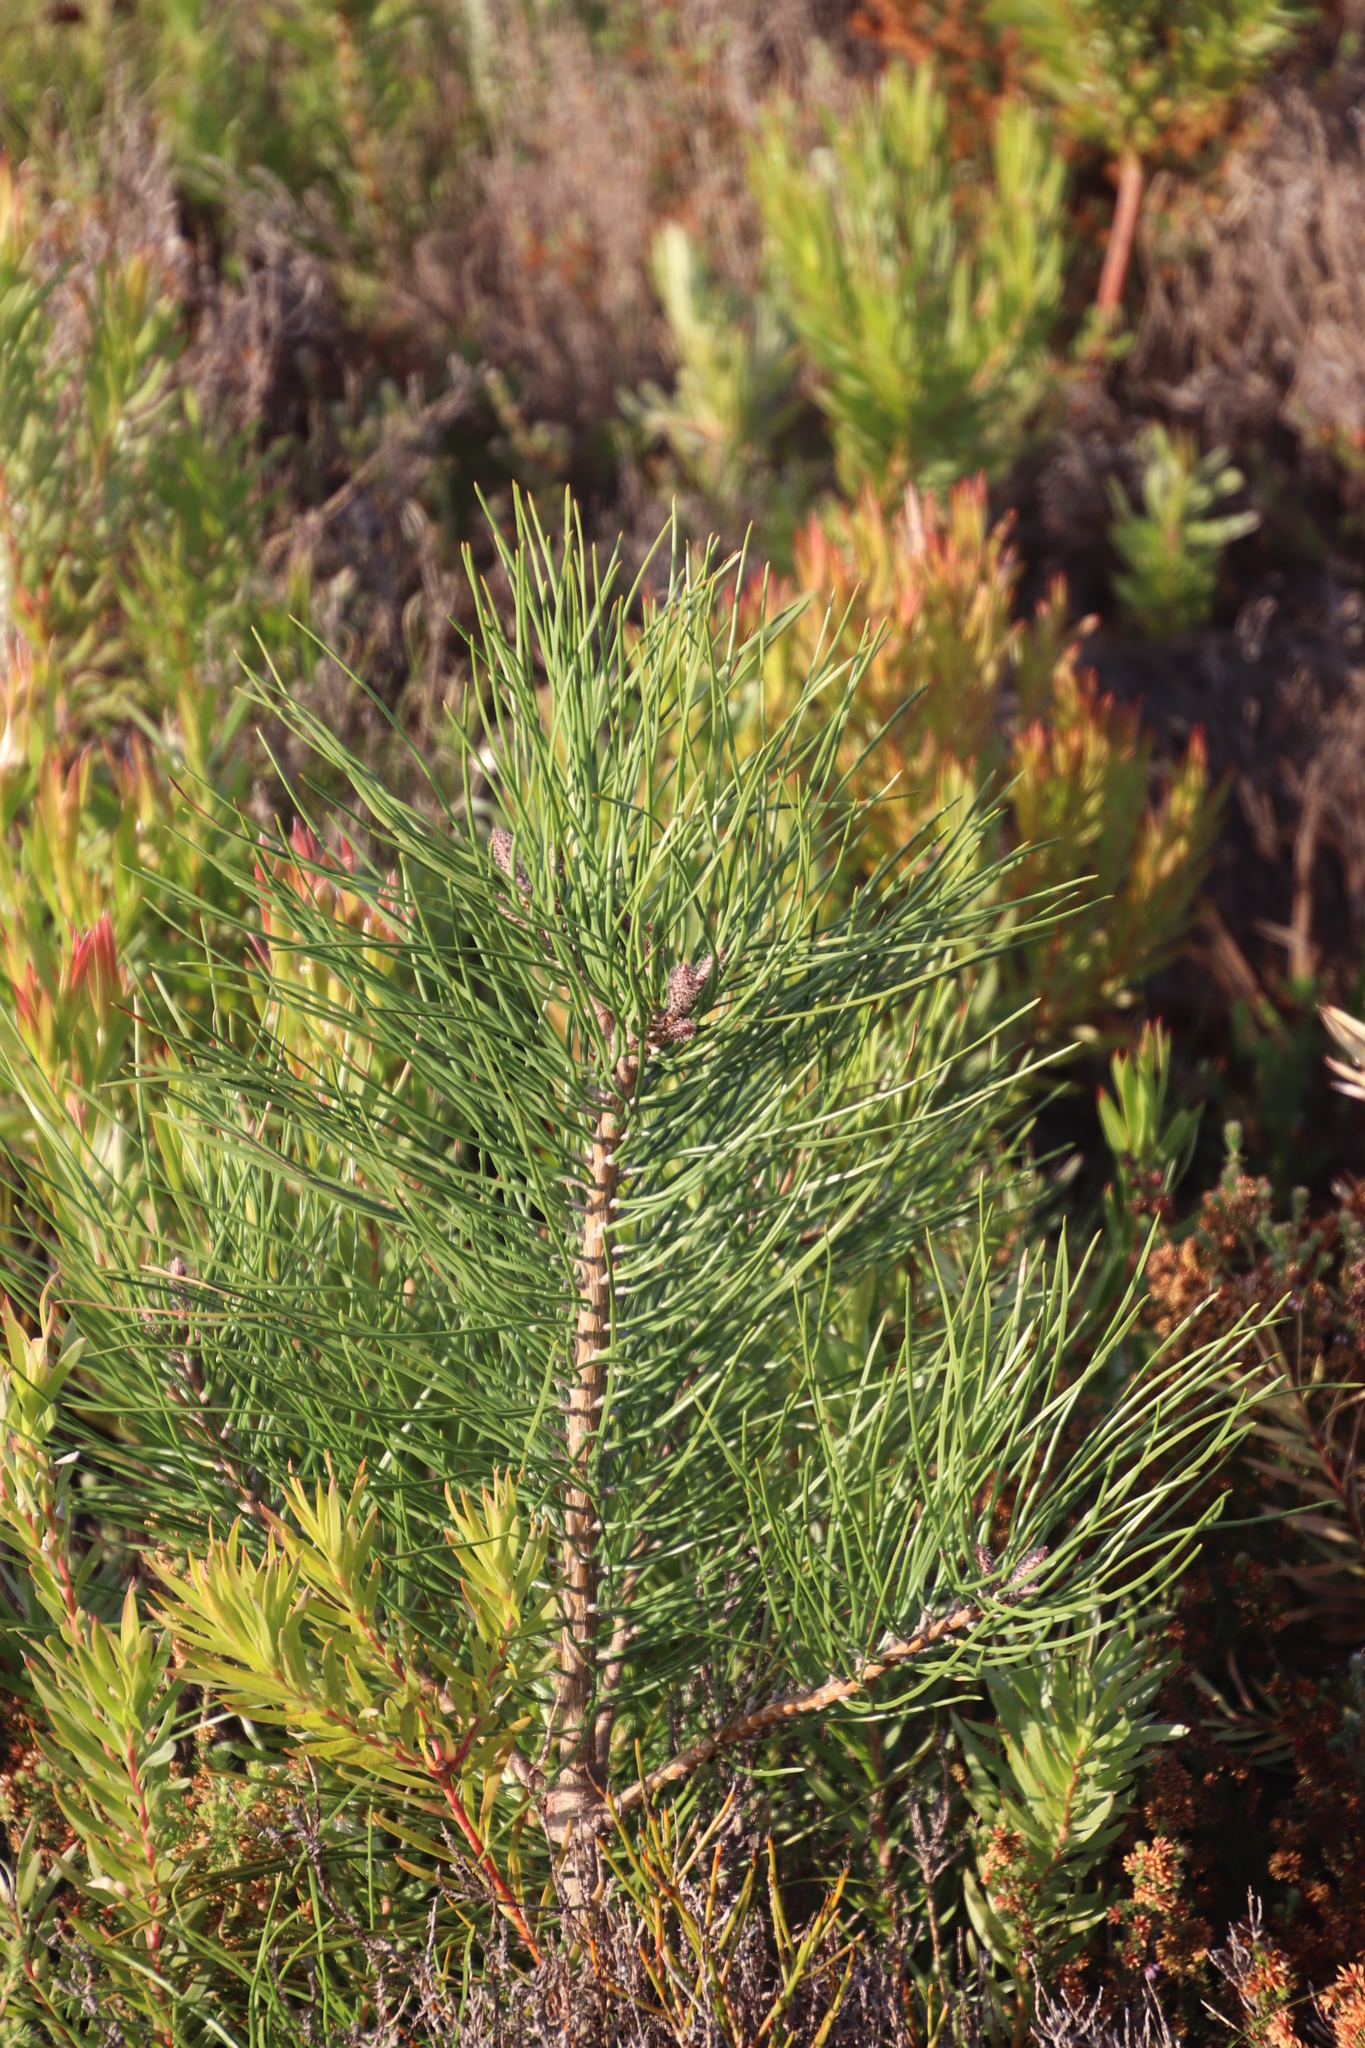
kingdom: Plantae
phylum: Tracheophyta
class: Pinopsida
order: Pinales
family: Pinaceae
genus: Pinus
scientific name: Pinus pinaster
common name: Maritime pine
